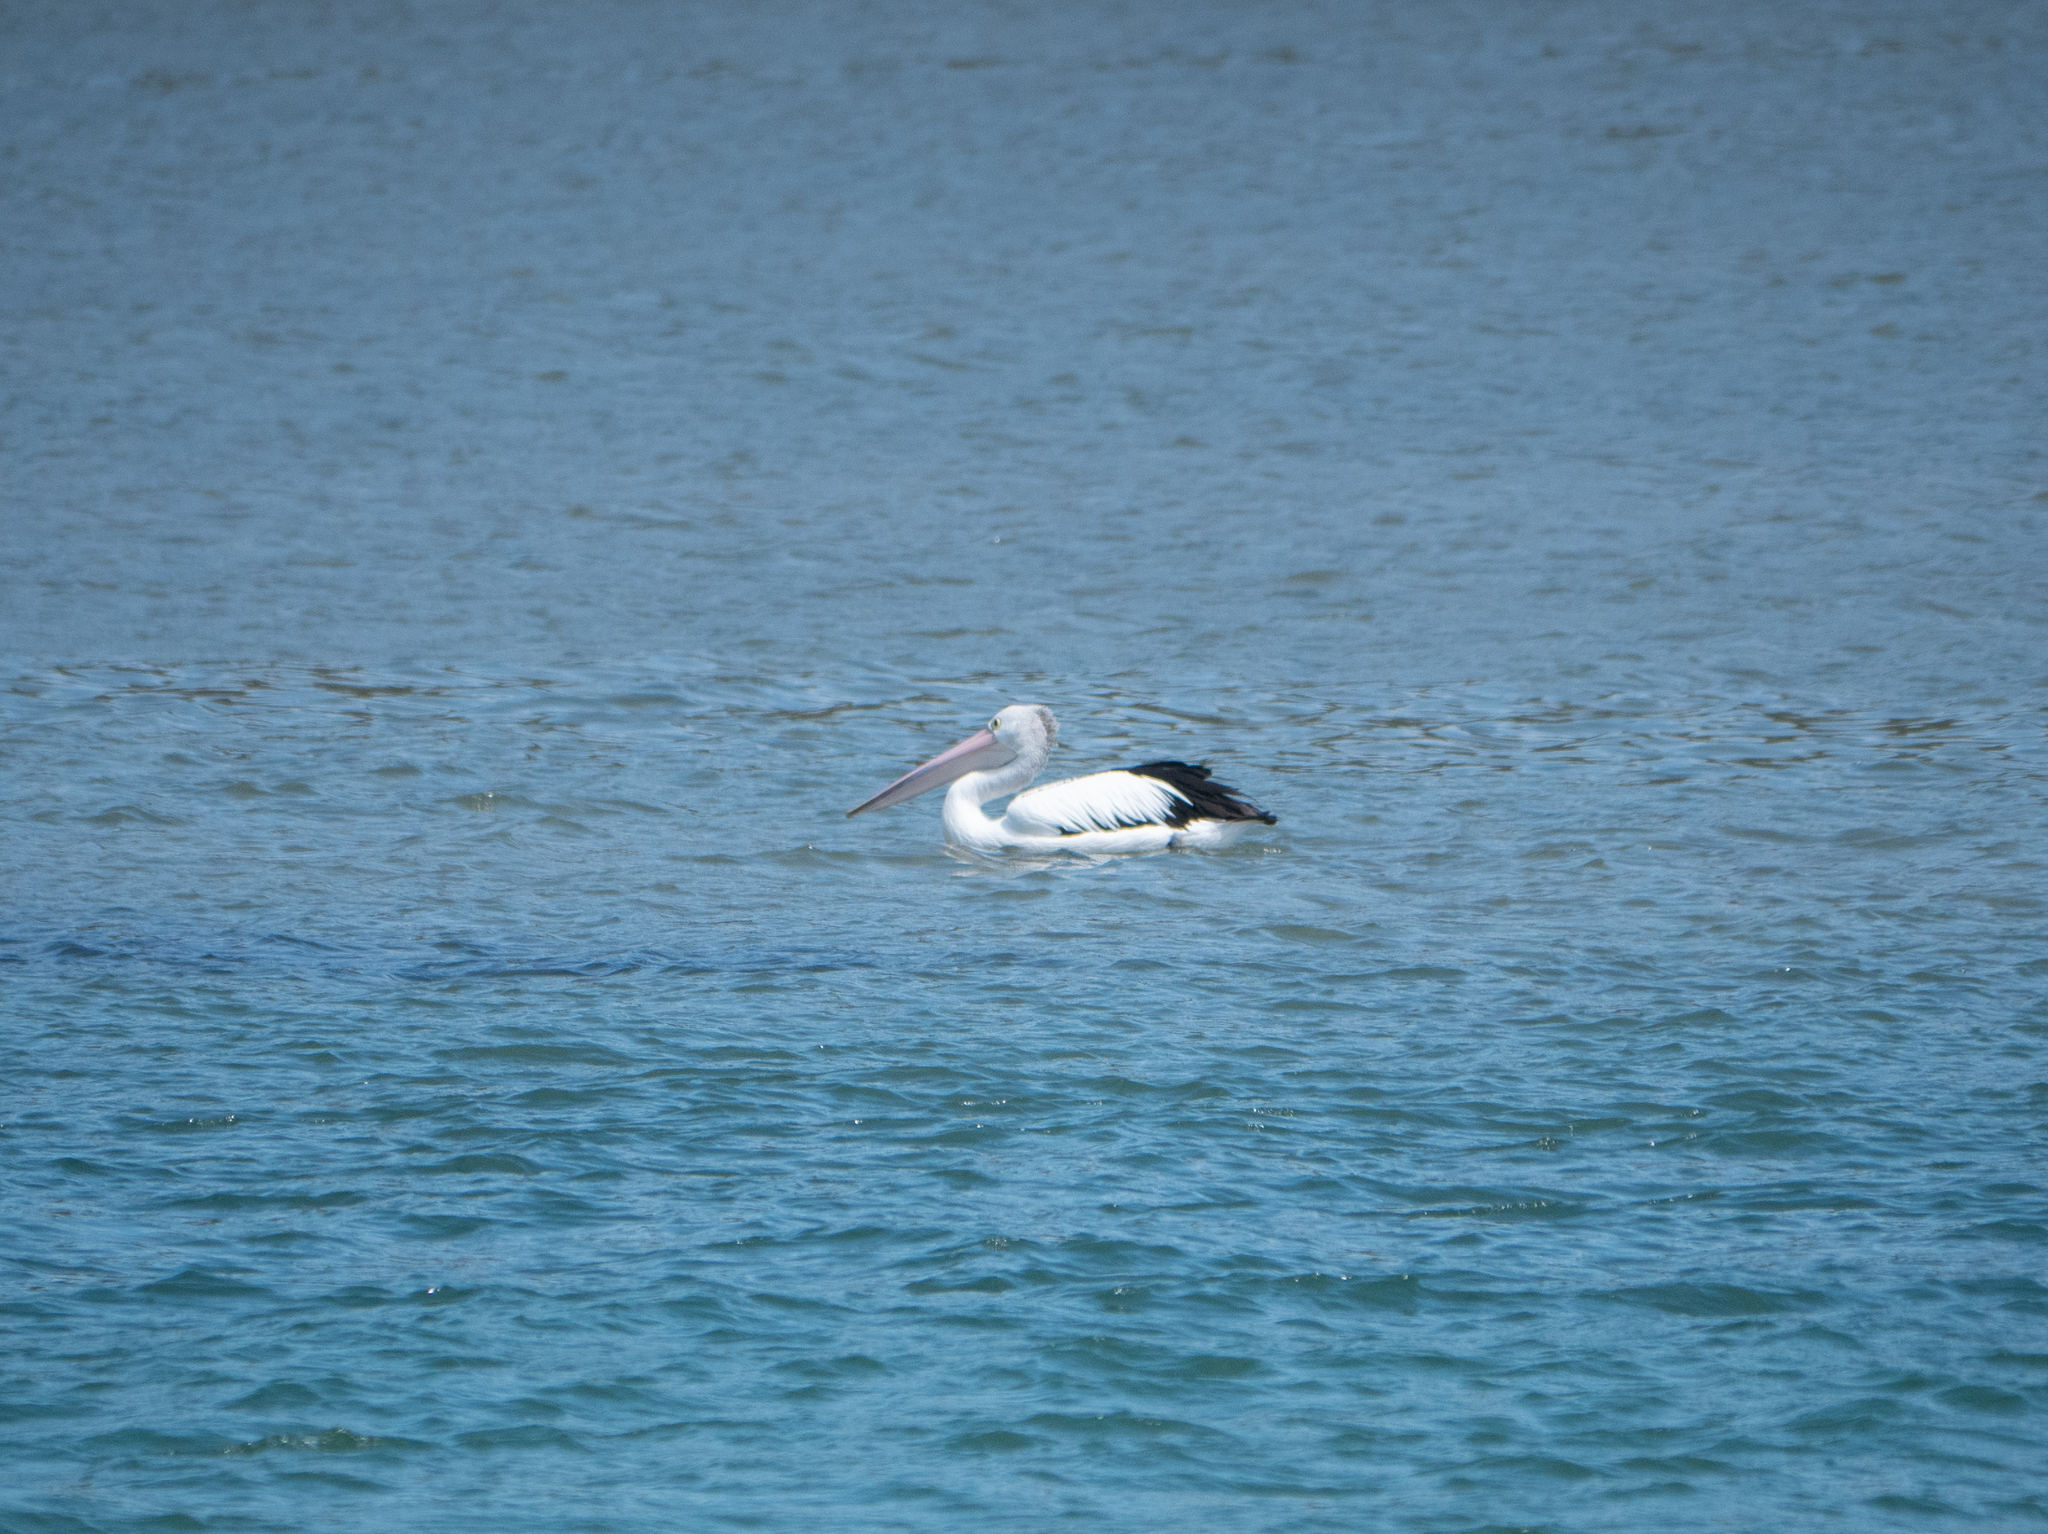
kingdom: Animalia
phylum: Chordata
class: Aves
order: Pelecaniformes
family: Pelecanidae
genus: Pelecanus
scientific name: Pelecanus conspicillatus
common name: Australian pelican
